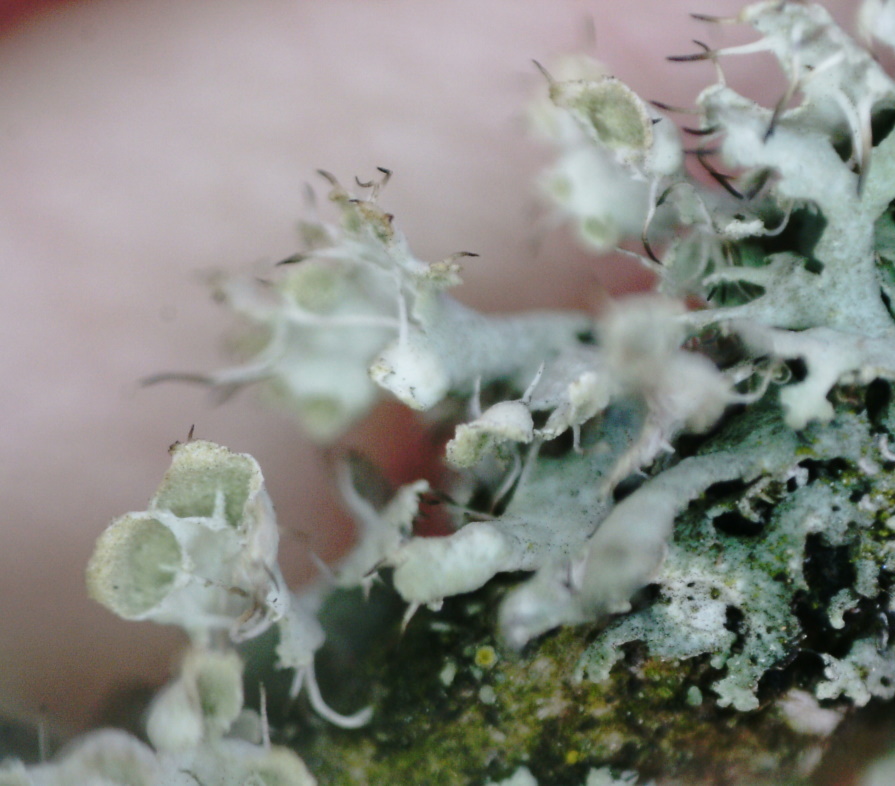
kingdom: Fungi
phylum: Ascomycota
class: Lecanoromycetes
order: Caliciales
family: Physciaceae
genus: Physcia
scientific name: Physcia adscendens
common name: Hooded rosette lichen
